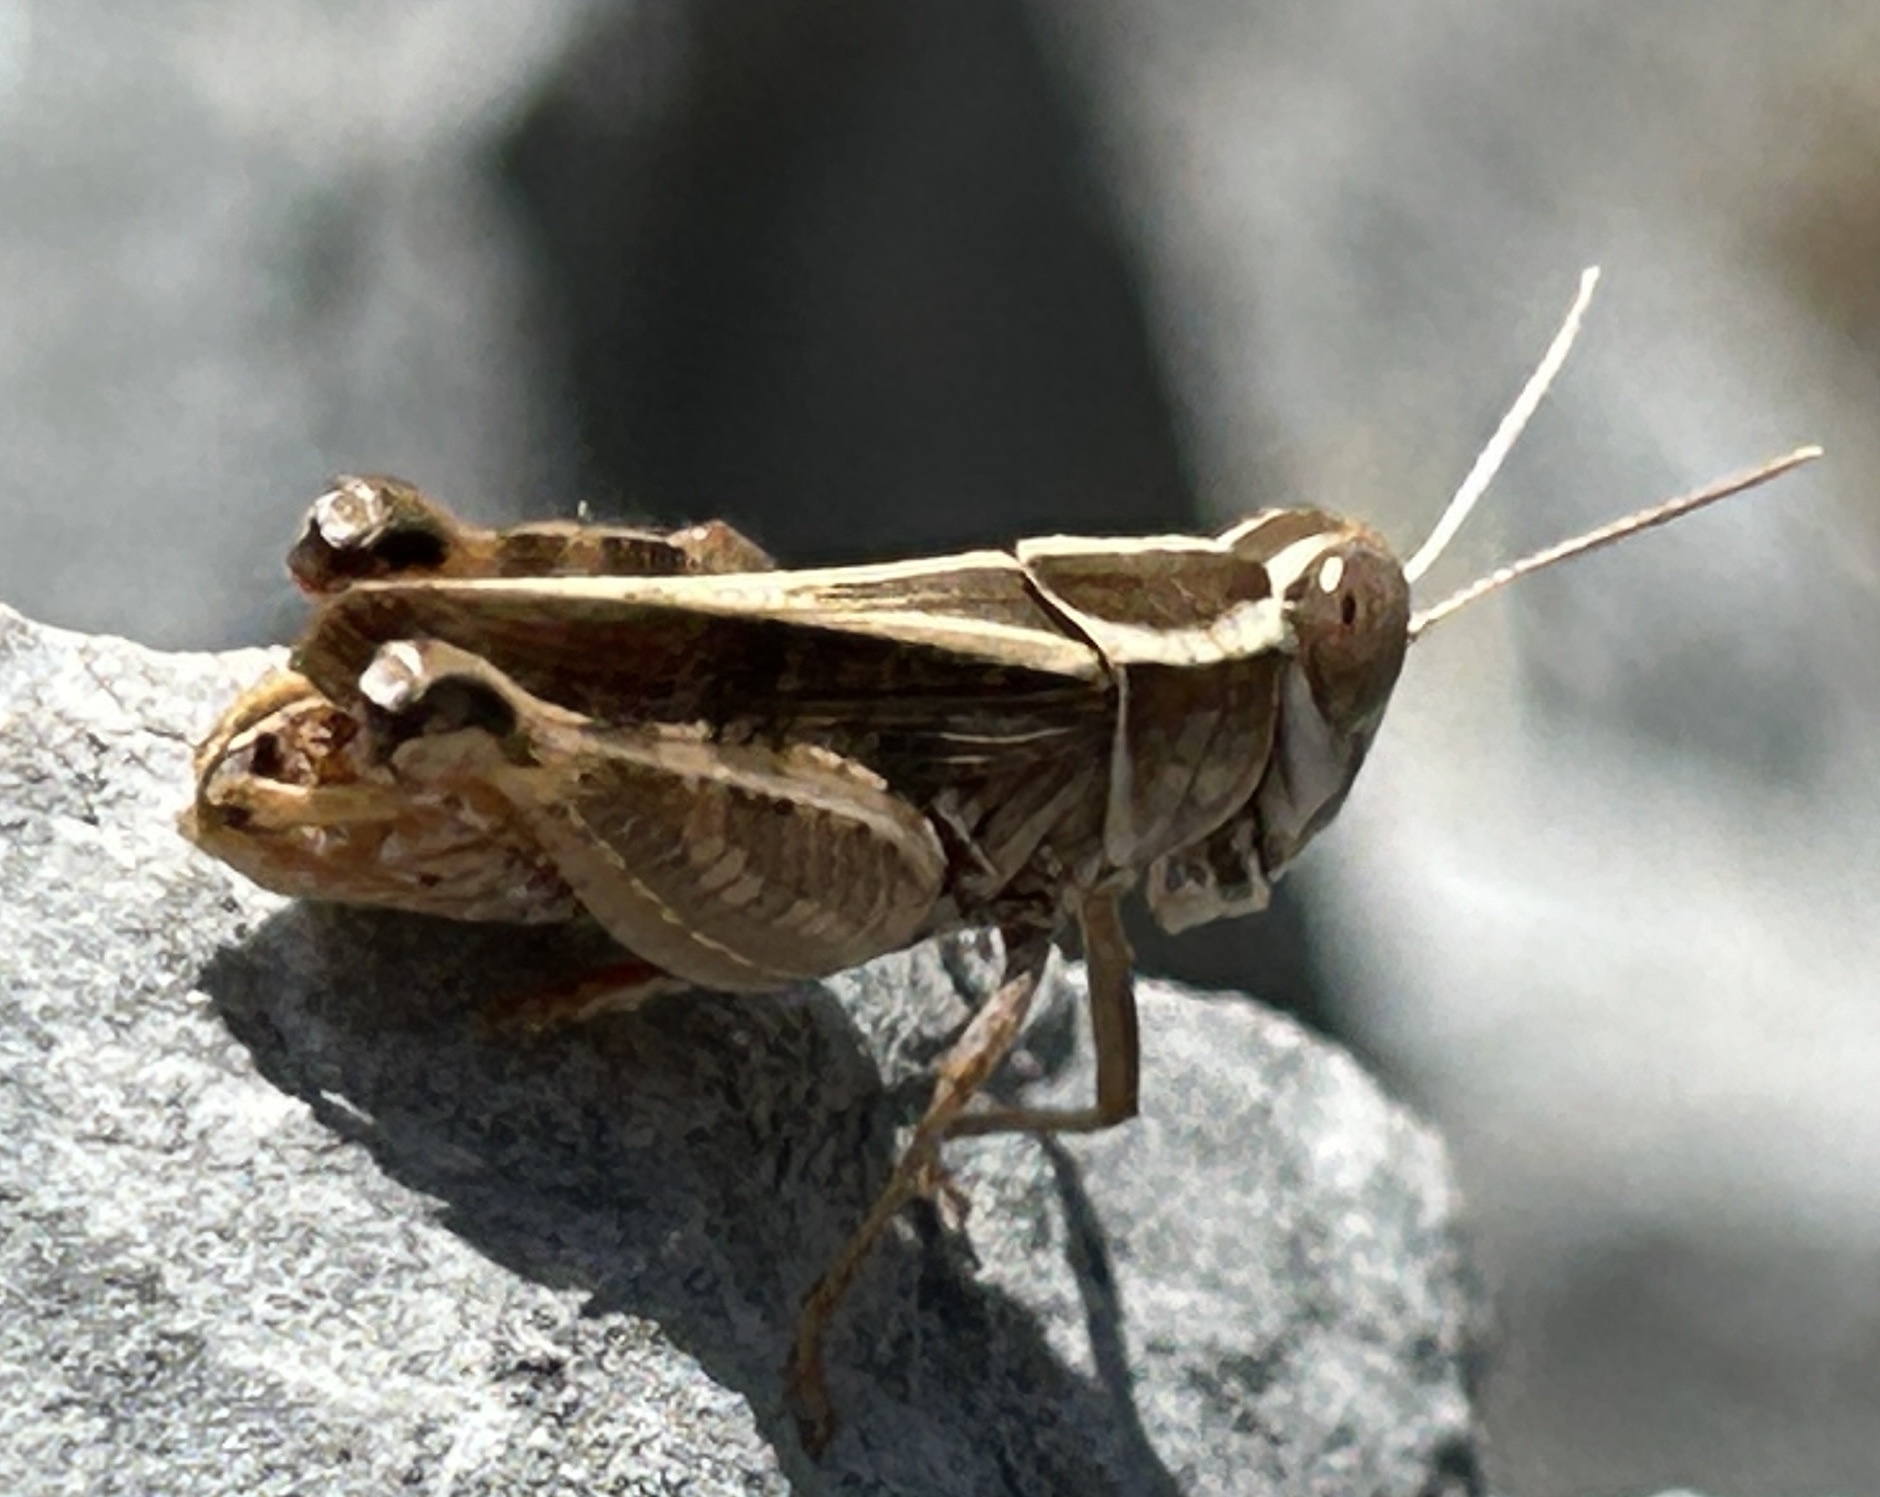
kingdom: Animalia
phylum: Arthropoda
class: Insecta
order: Orthoptera
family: Acrididae
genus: Calliptamus
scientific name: Calliptamus
